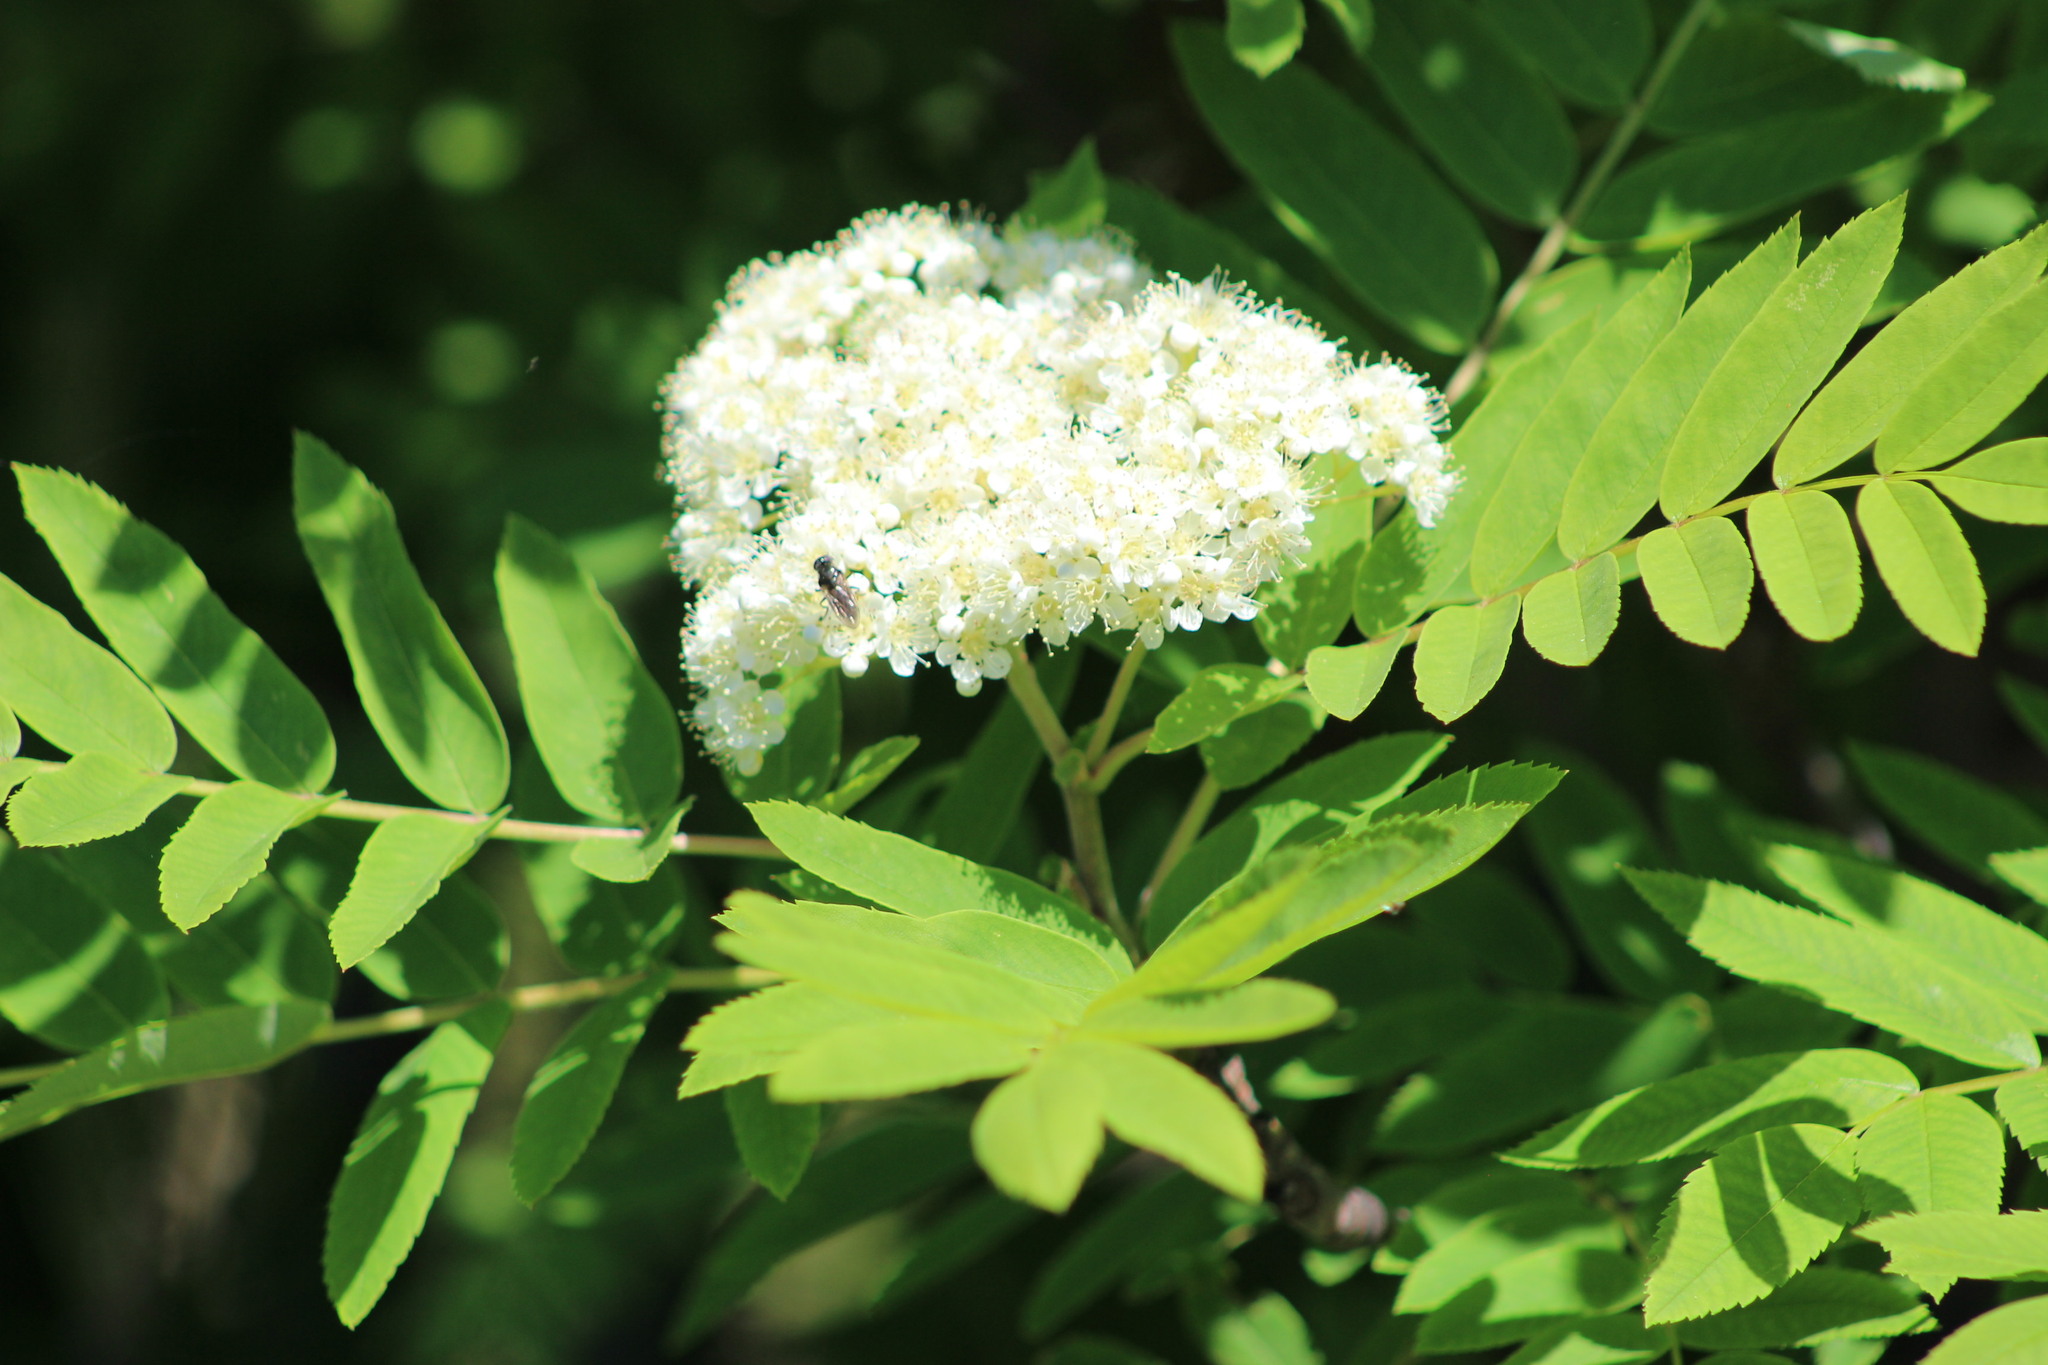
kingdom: Plantae
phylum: Tracheophyta
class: Magnoliopsida
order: Rosales
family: Rosaceae
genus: Sorbus
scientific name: Sorbus aucuparia
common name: Rowan
